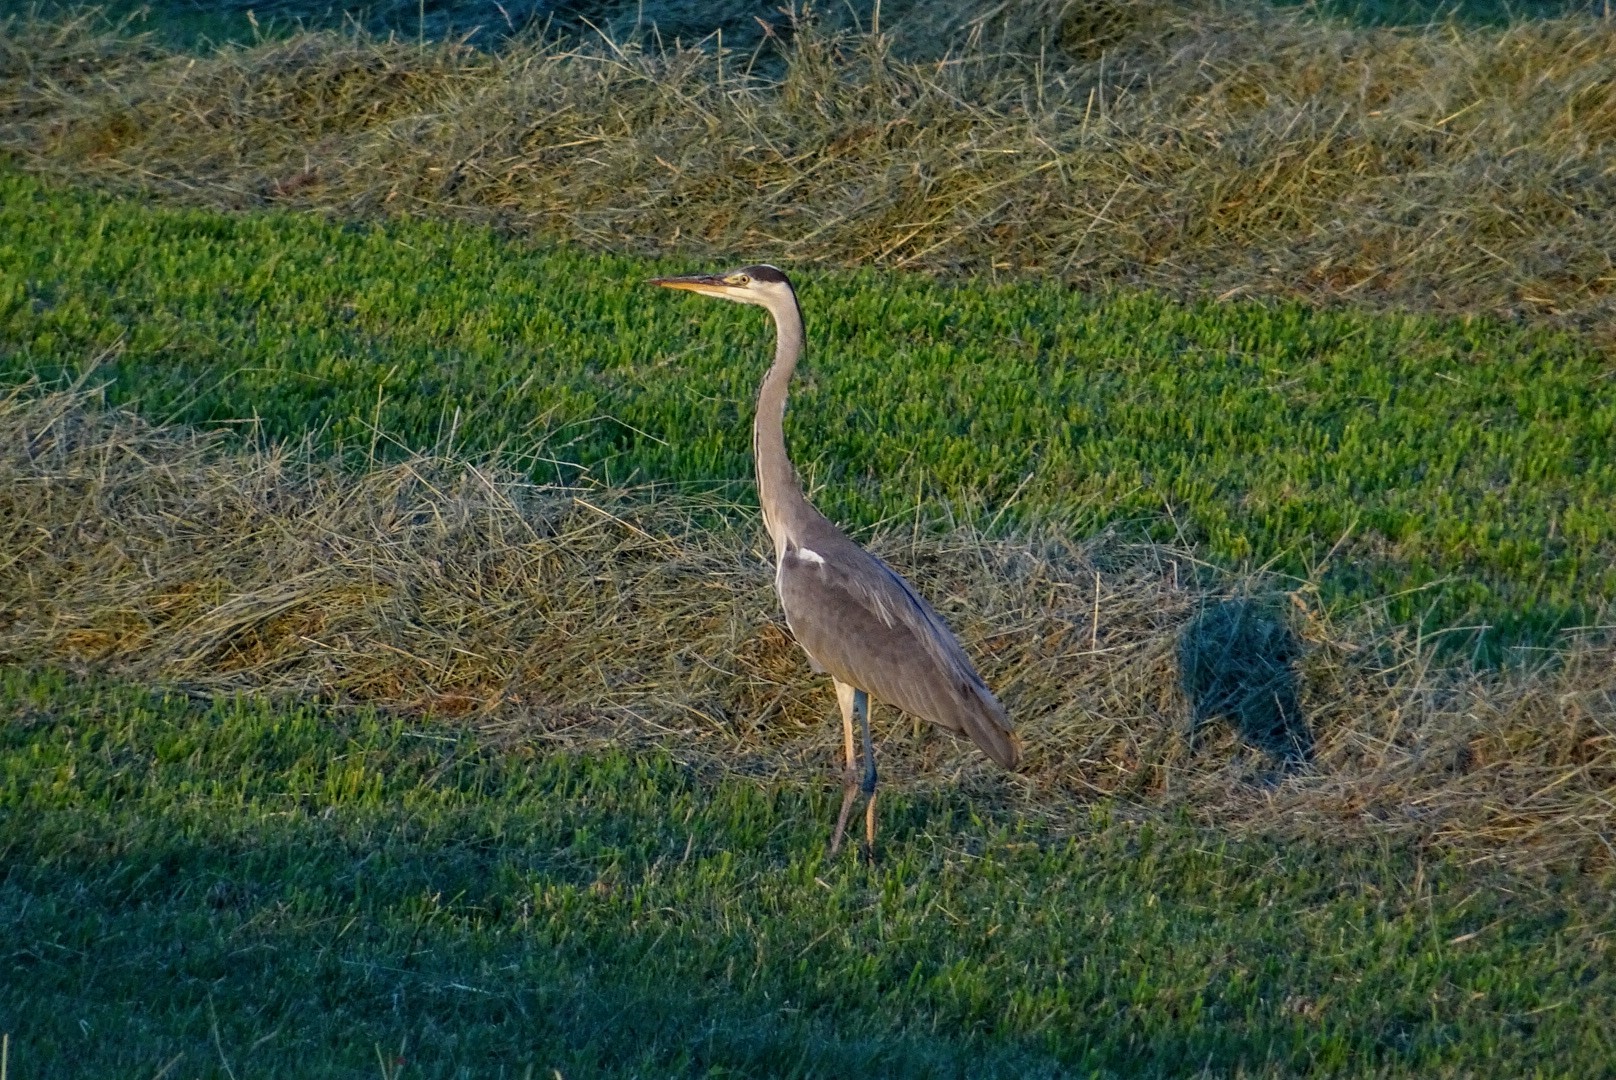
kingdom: Animalia
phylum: Chordata
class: Aves
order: Pelecaniformes
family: Ardeidae
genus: Ardea
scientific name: Ardea cinerea
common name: Grey heron
